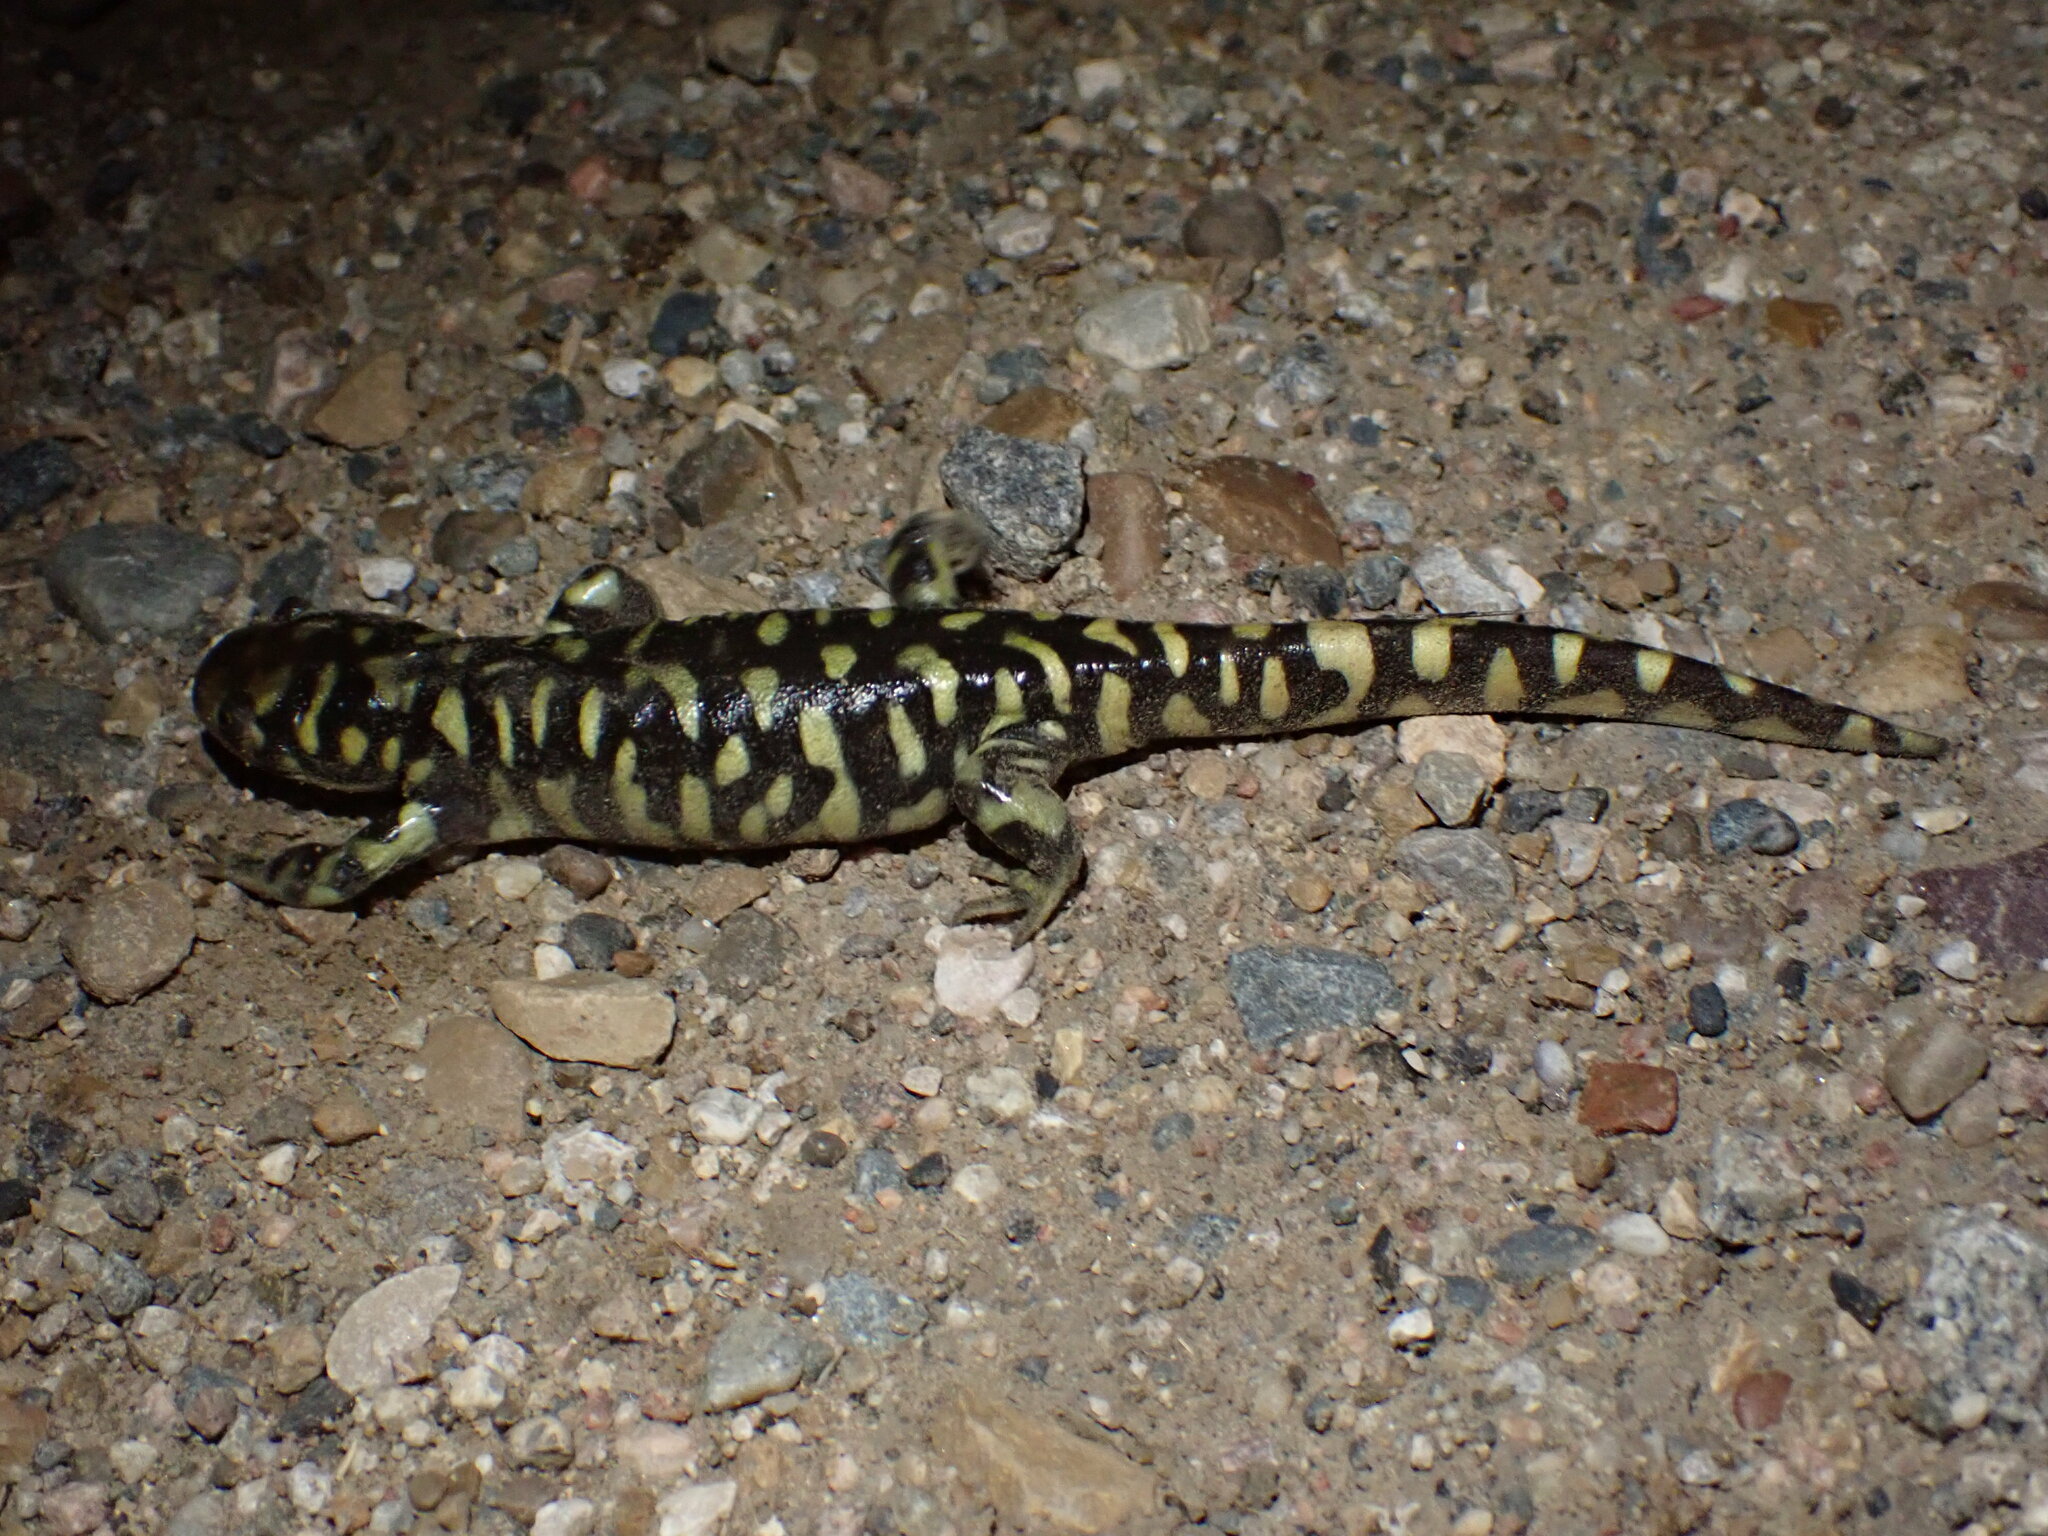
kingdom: Animalia
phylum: Chordata
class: Amphibia
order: Caudata
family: Ambystomatidae
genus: Ambystoma
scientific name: Ambystoma mavortium
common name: Western tiger salamander
